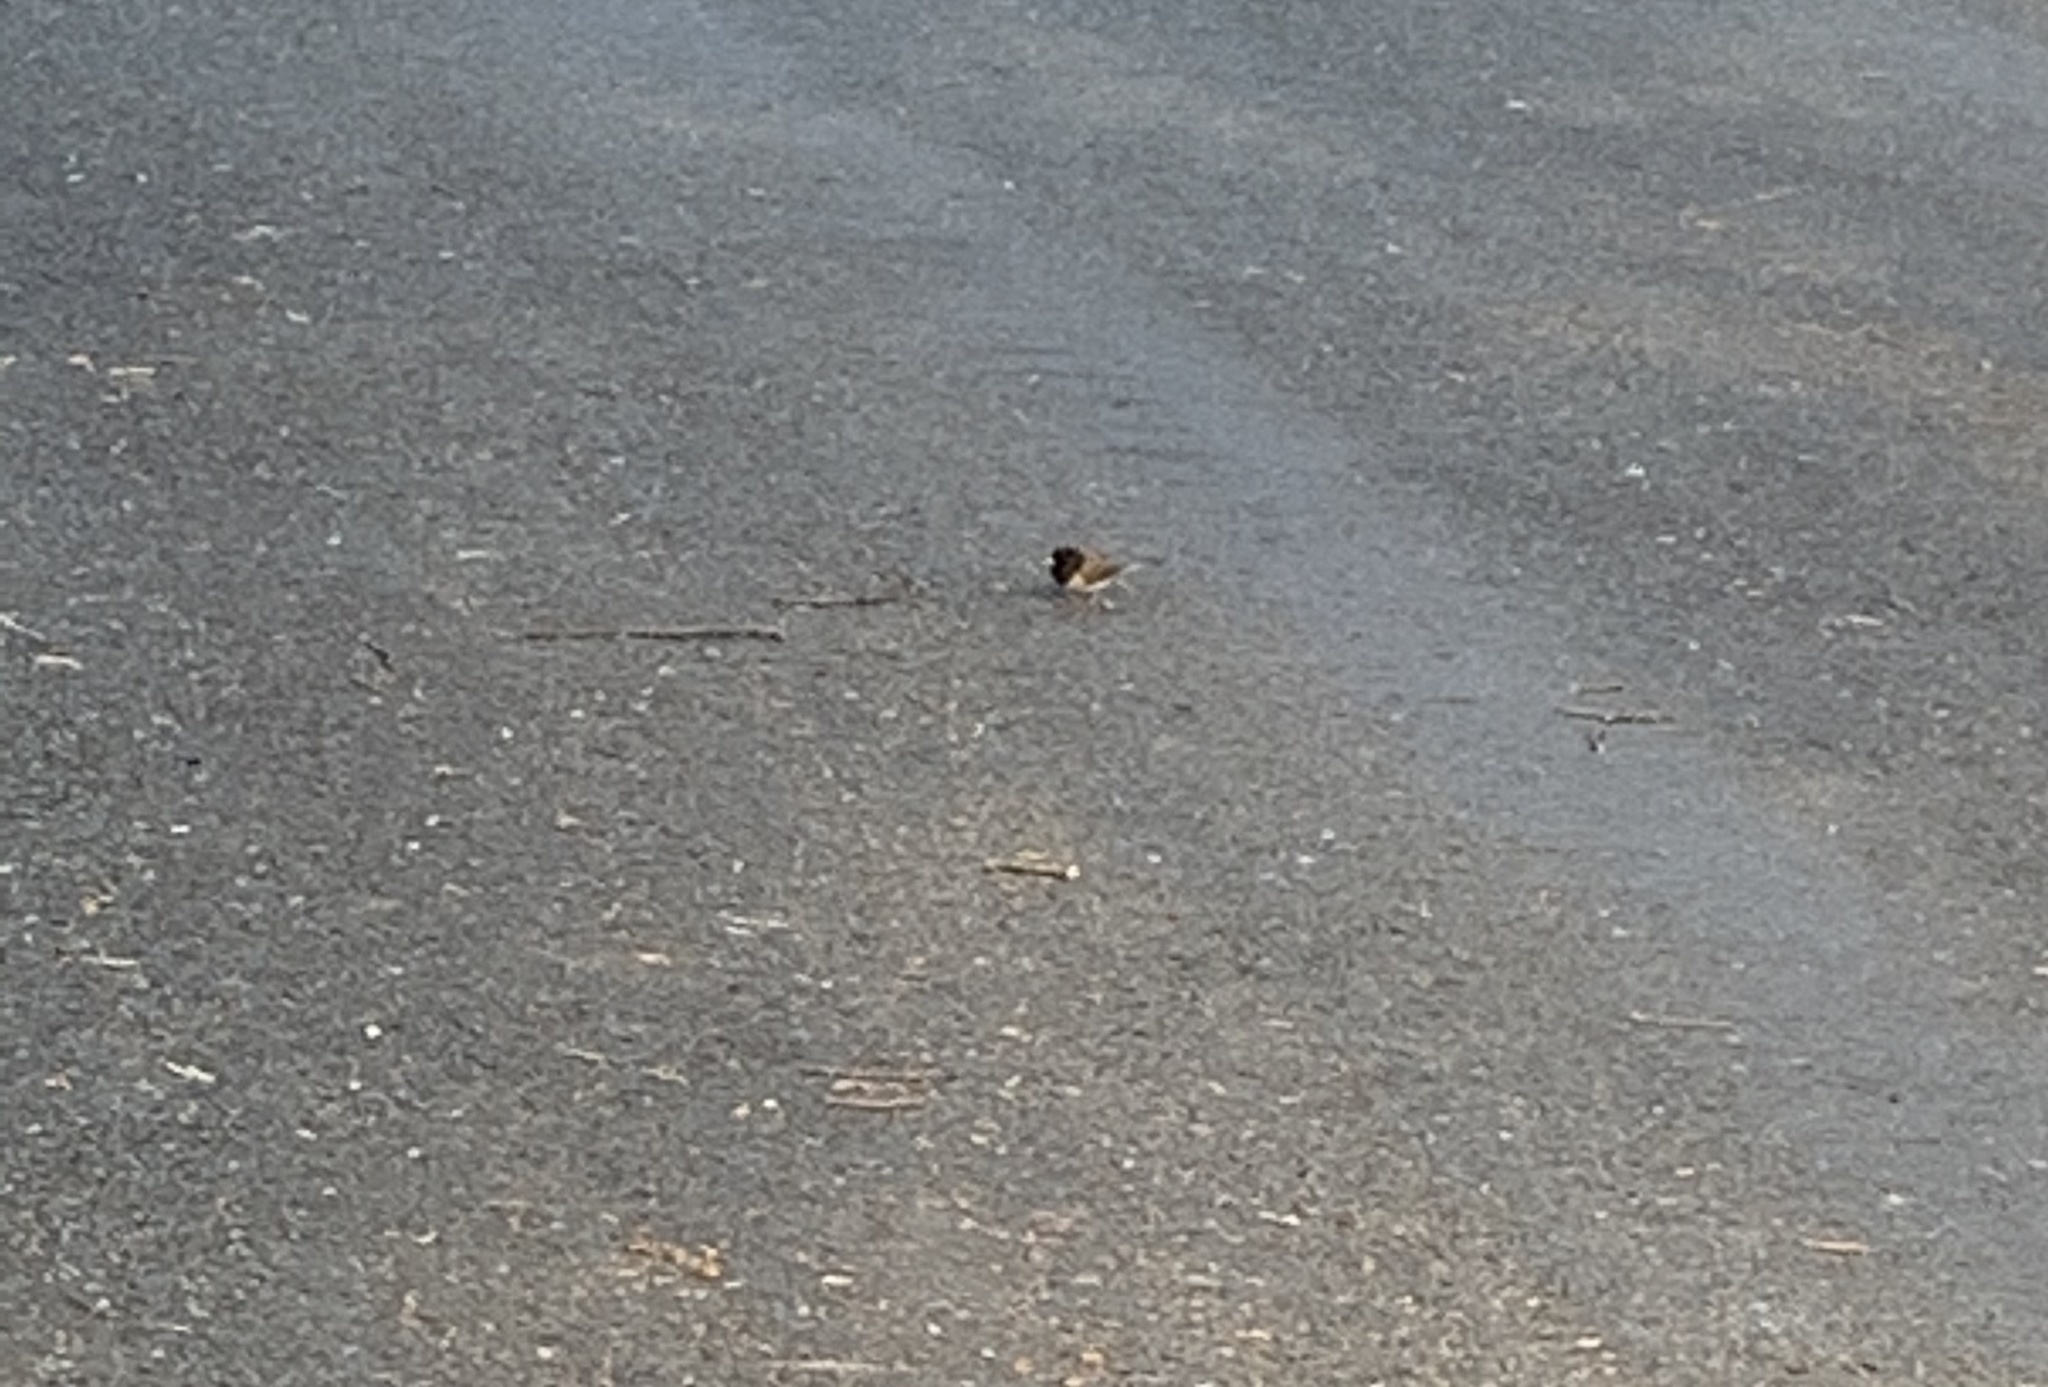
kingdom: Animalia
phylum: Chordata
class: Aves
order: Passeriformes
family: Passerellidae
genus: Junco
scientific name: Junco hyemalis
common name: Dark-eyed junco
